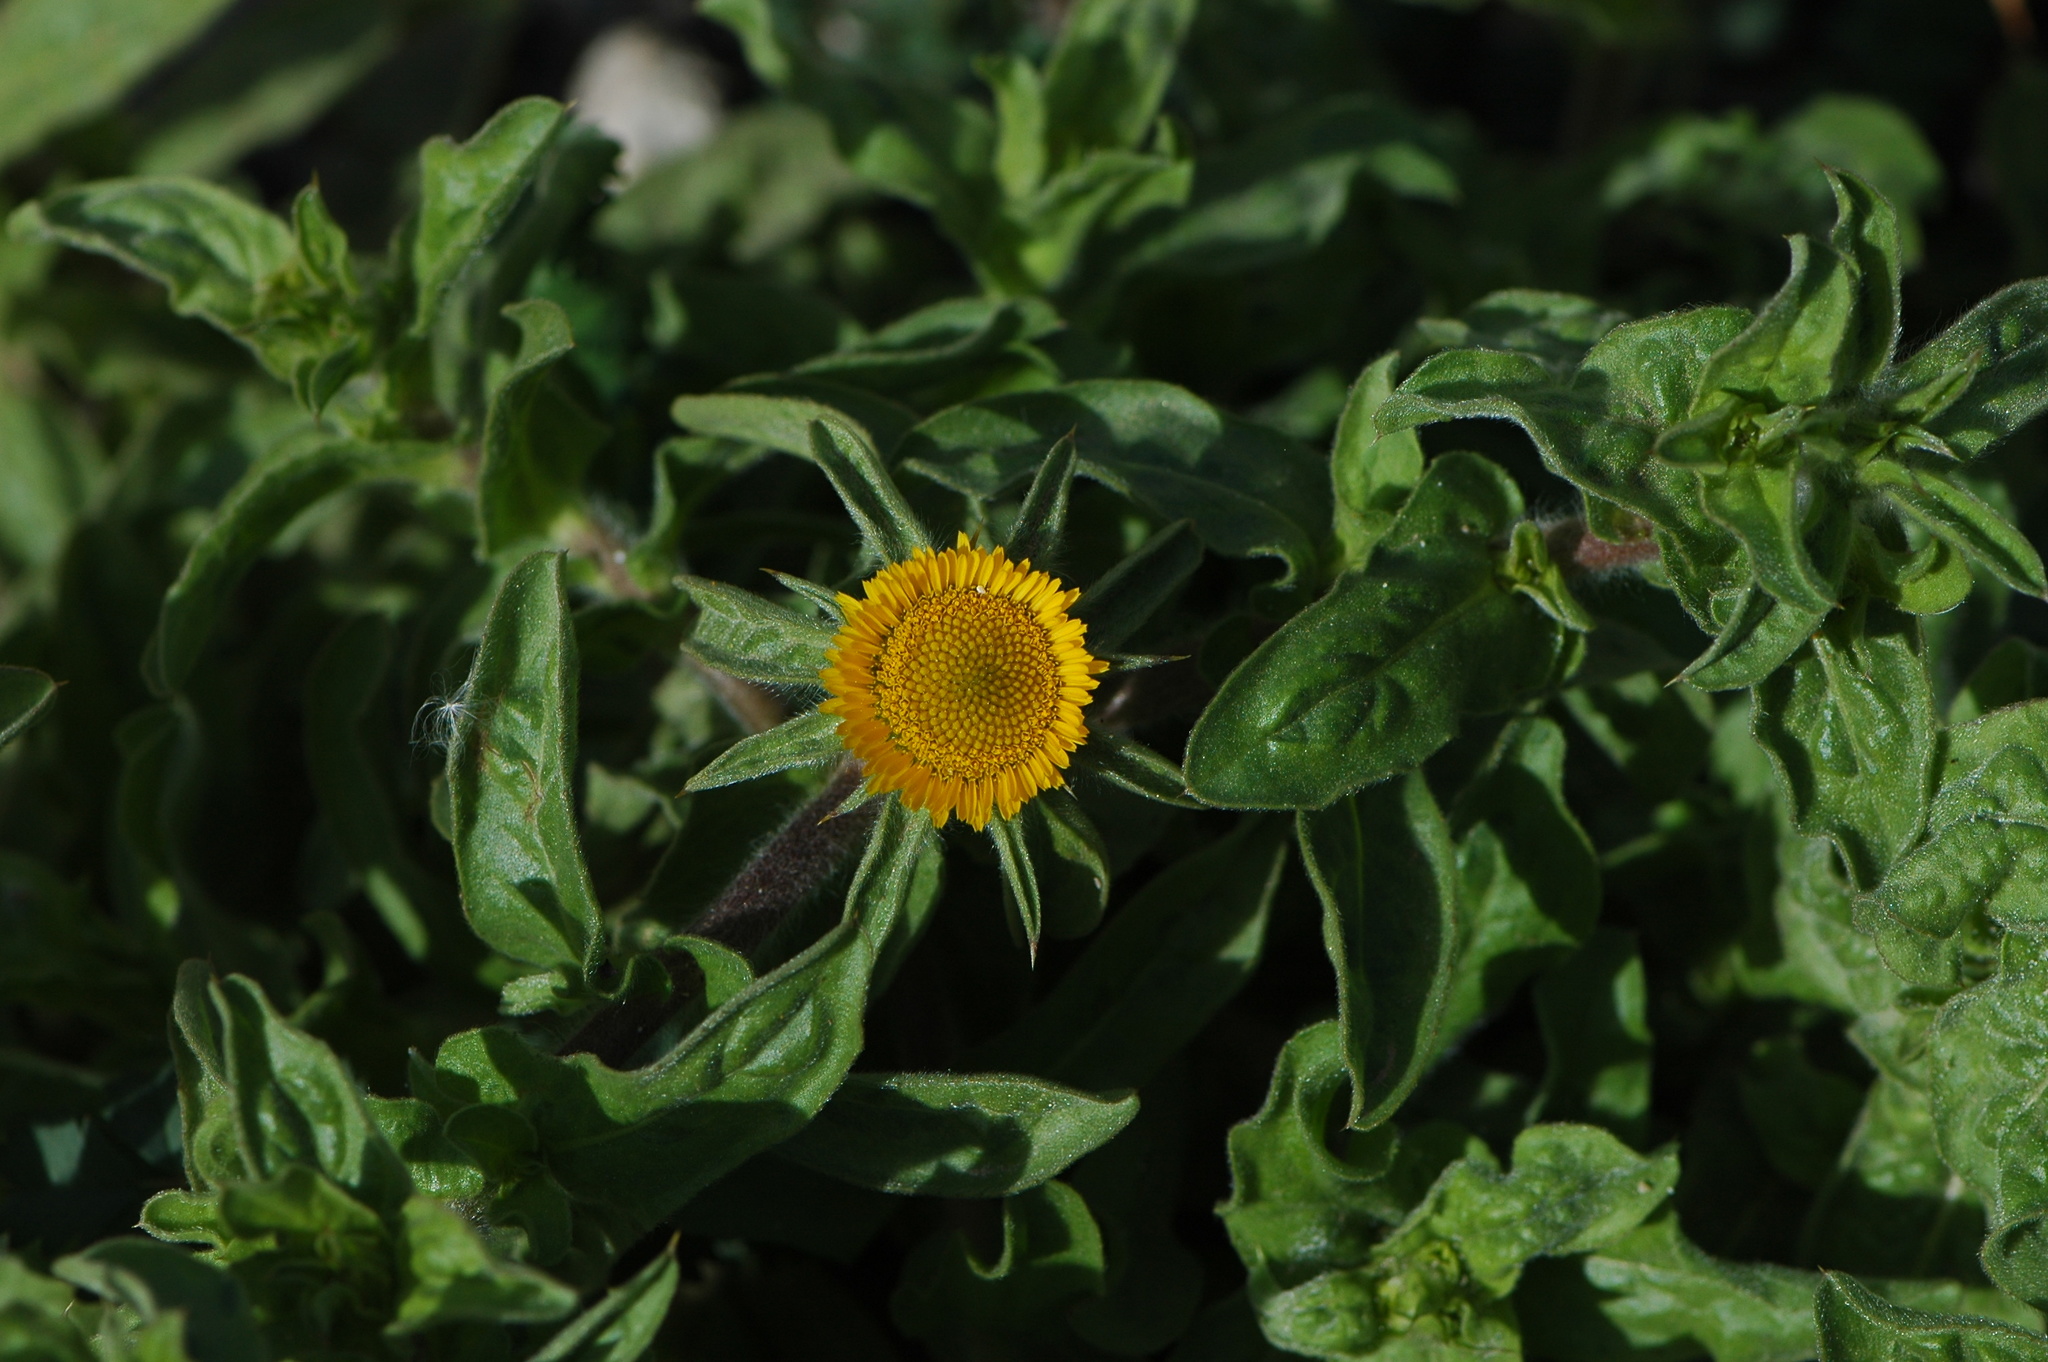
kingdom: Plantae
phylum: Tracheophyta
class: Magnoliopsida
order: Asterales
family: Asteraceae
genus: Pallenis
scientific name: Pallenis spinosa
